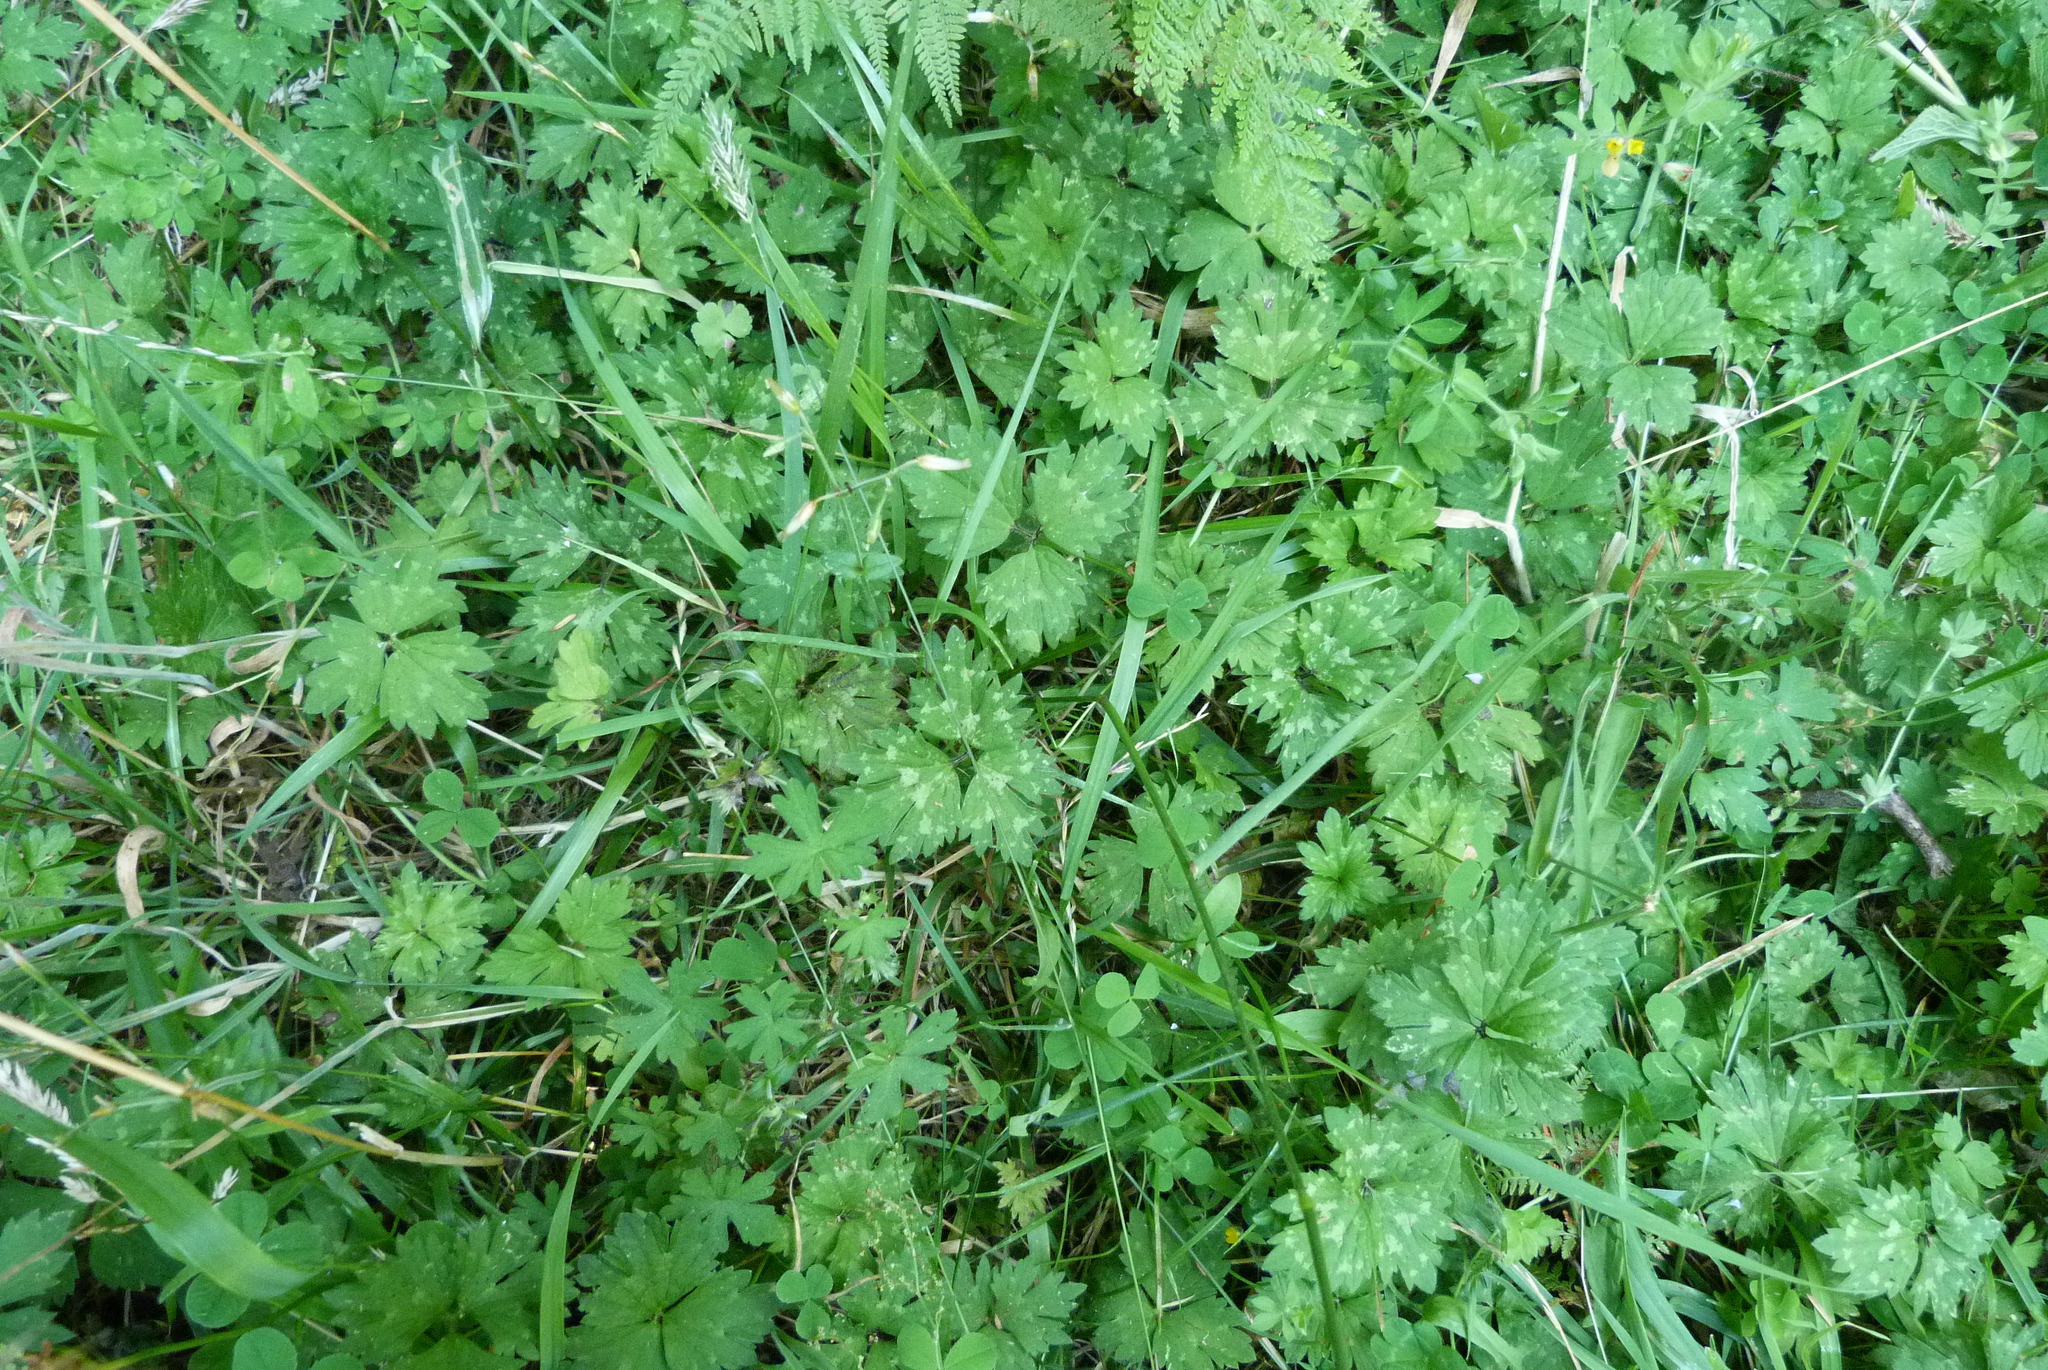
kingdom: Plantae
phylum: Tracheophyta
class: Magnoliopsida
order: Ranunculales
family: Ranunculaceae
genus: Ranunculus
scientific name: Ranunculus repens
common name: Creeping buttercup
